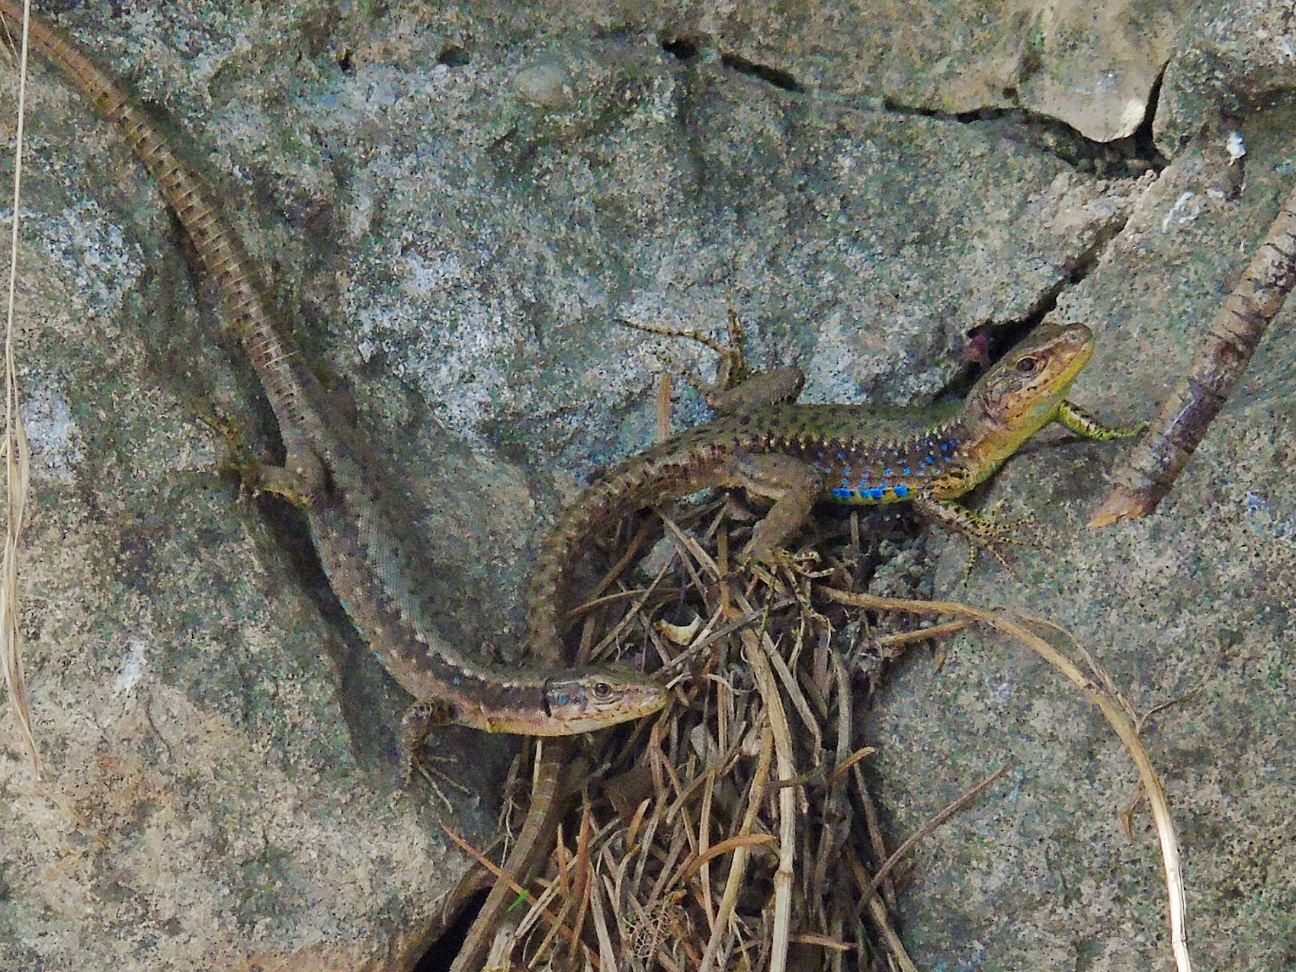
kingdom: Animalia
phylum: Chordata
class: Squamata
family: Lacertidae
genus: Darevskia
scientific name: Darevskia mixta
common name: Ajarian lizard
